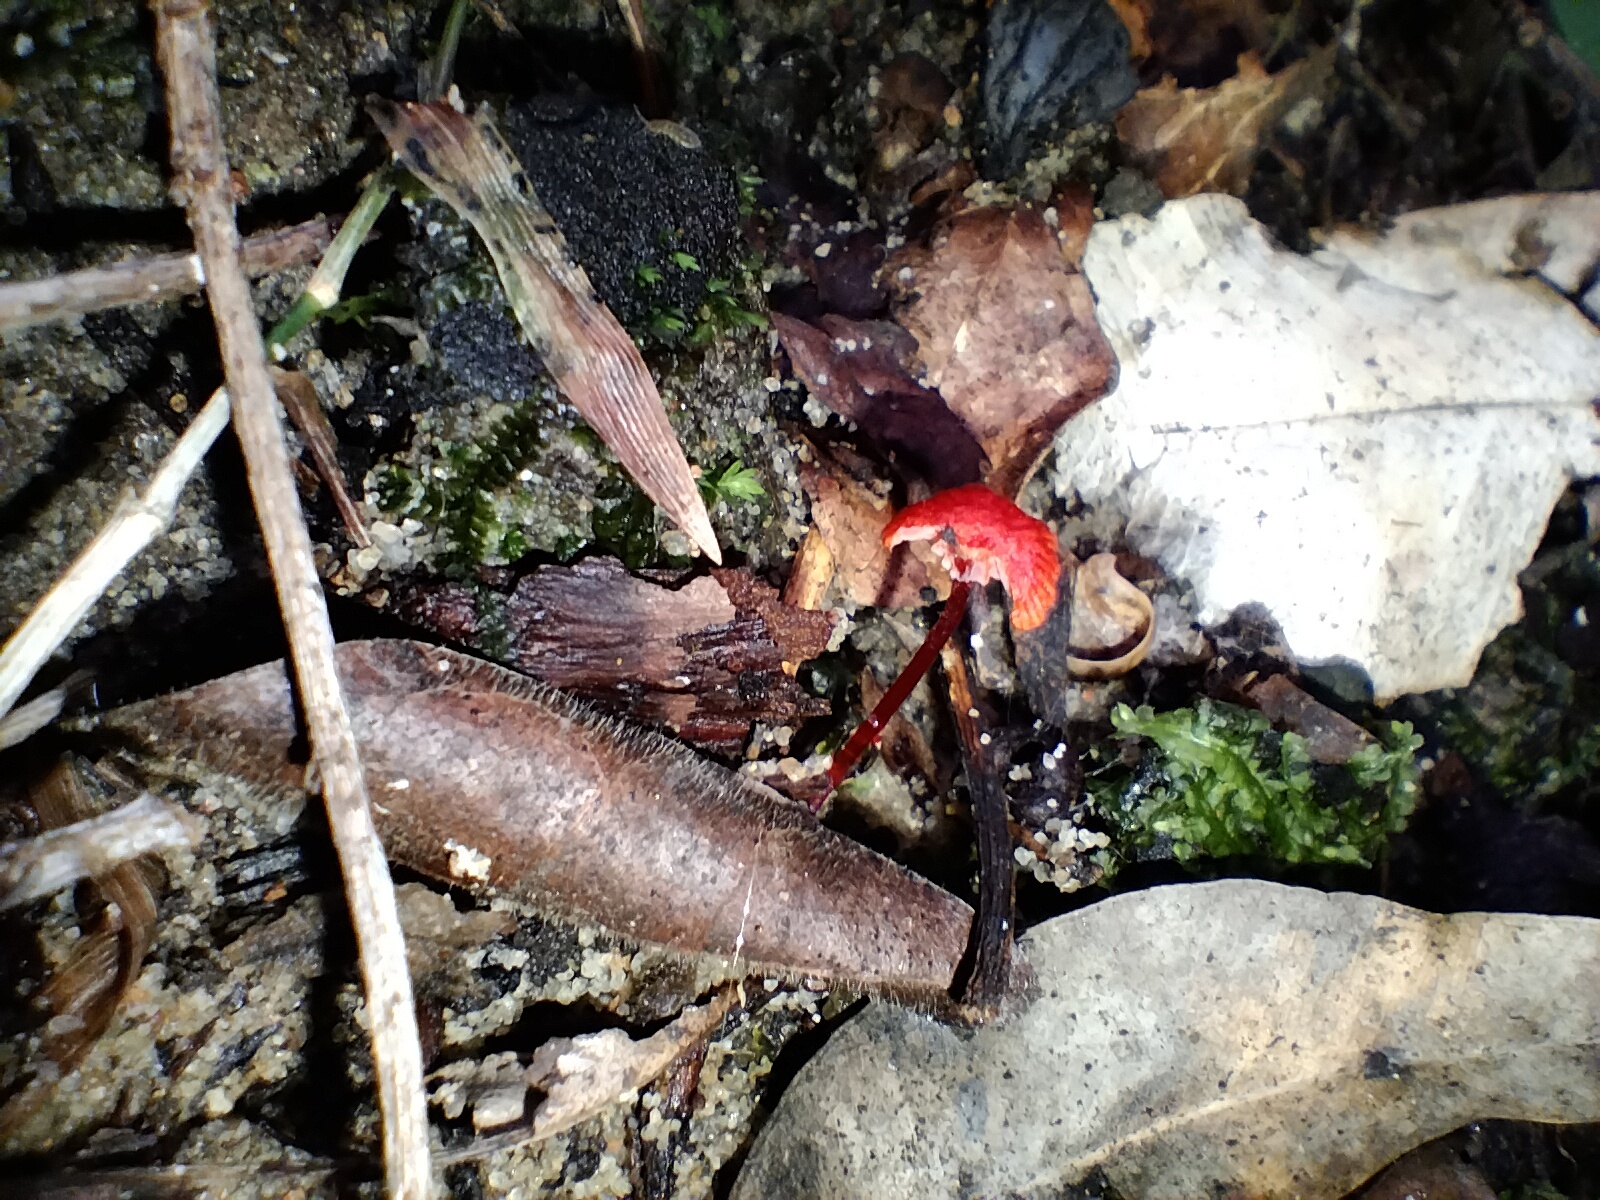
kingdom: Fungi
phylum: Basidiomycota
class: Agaricomycetes
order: Agaricales
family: Mycenaceae
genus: Cruentomycena
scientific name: Cruentomycena viscidocruenta
